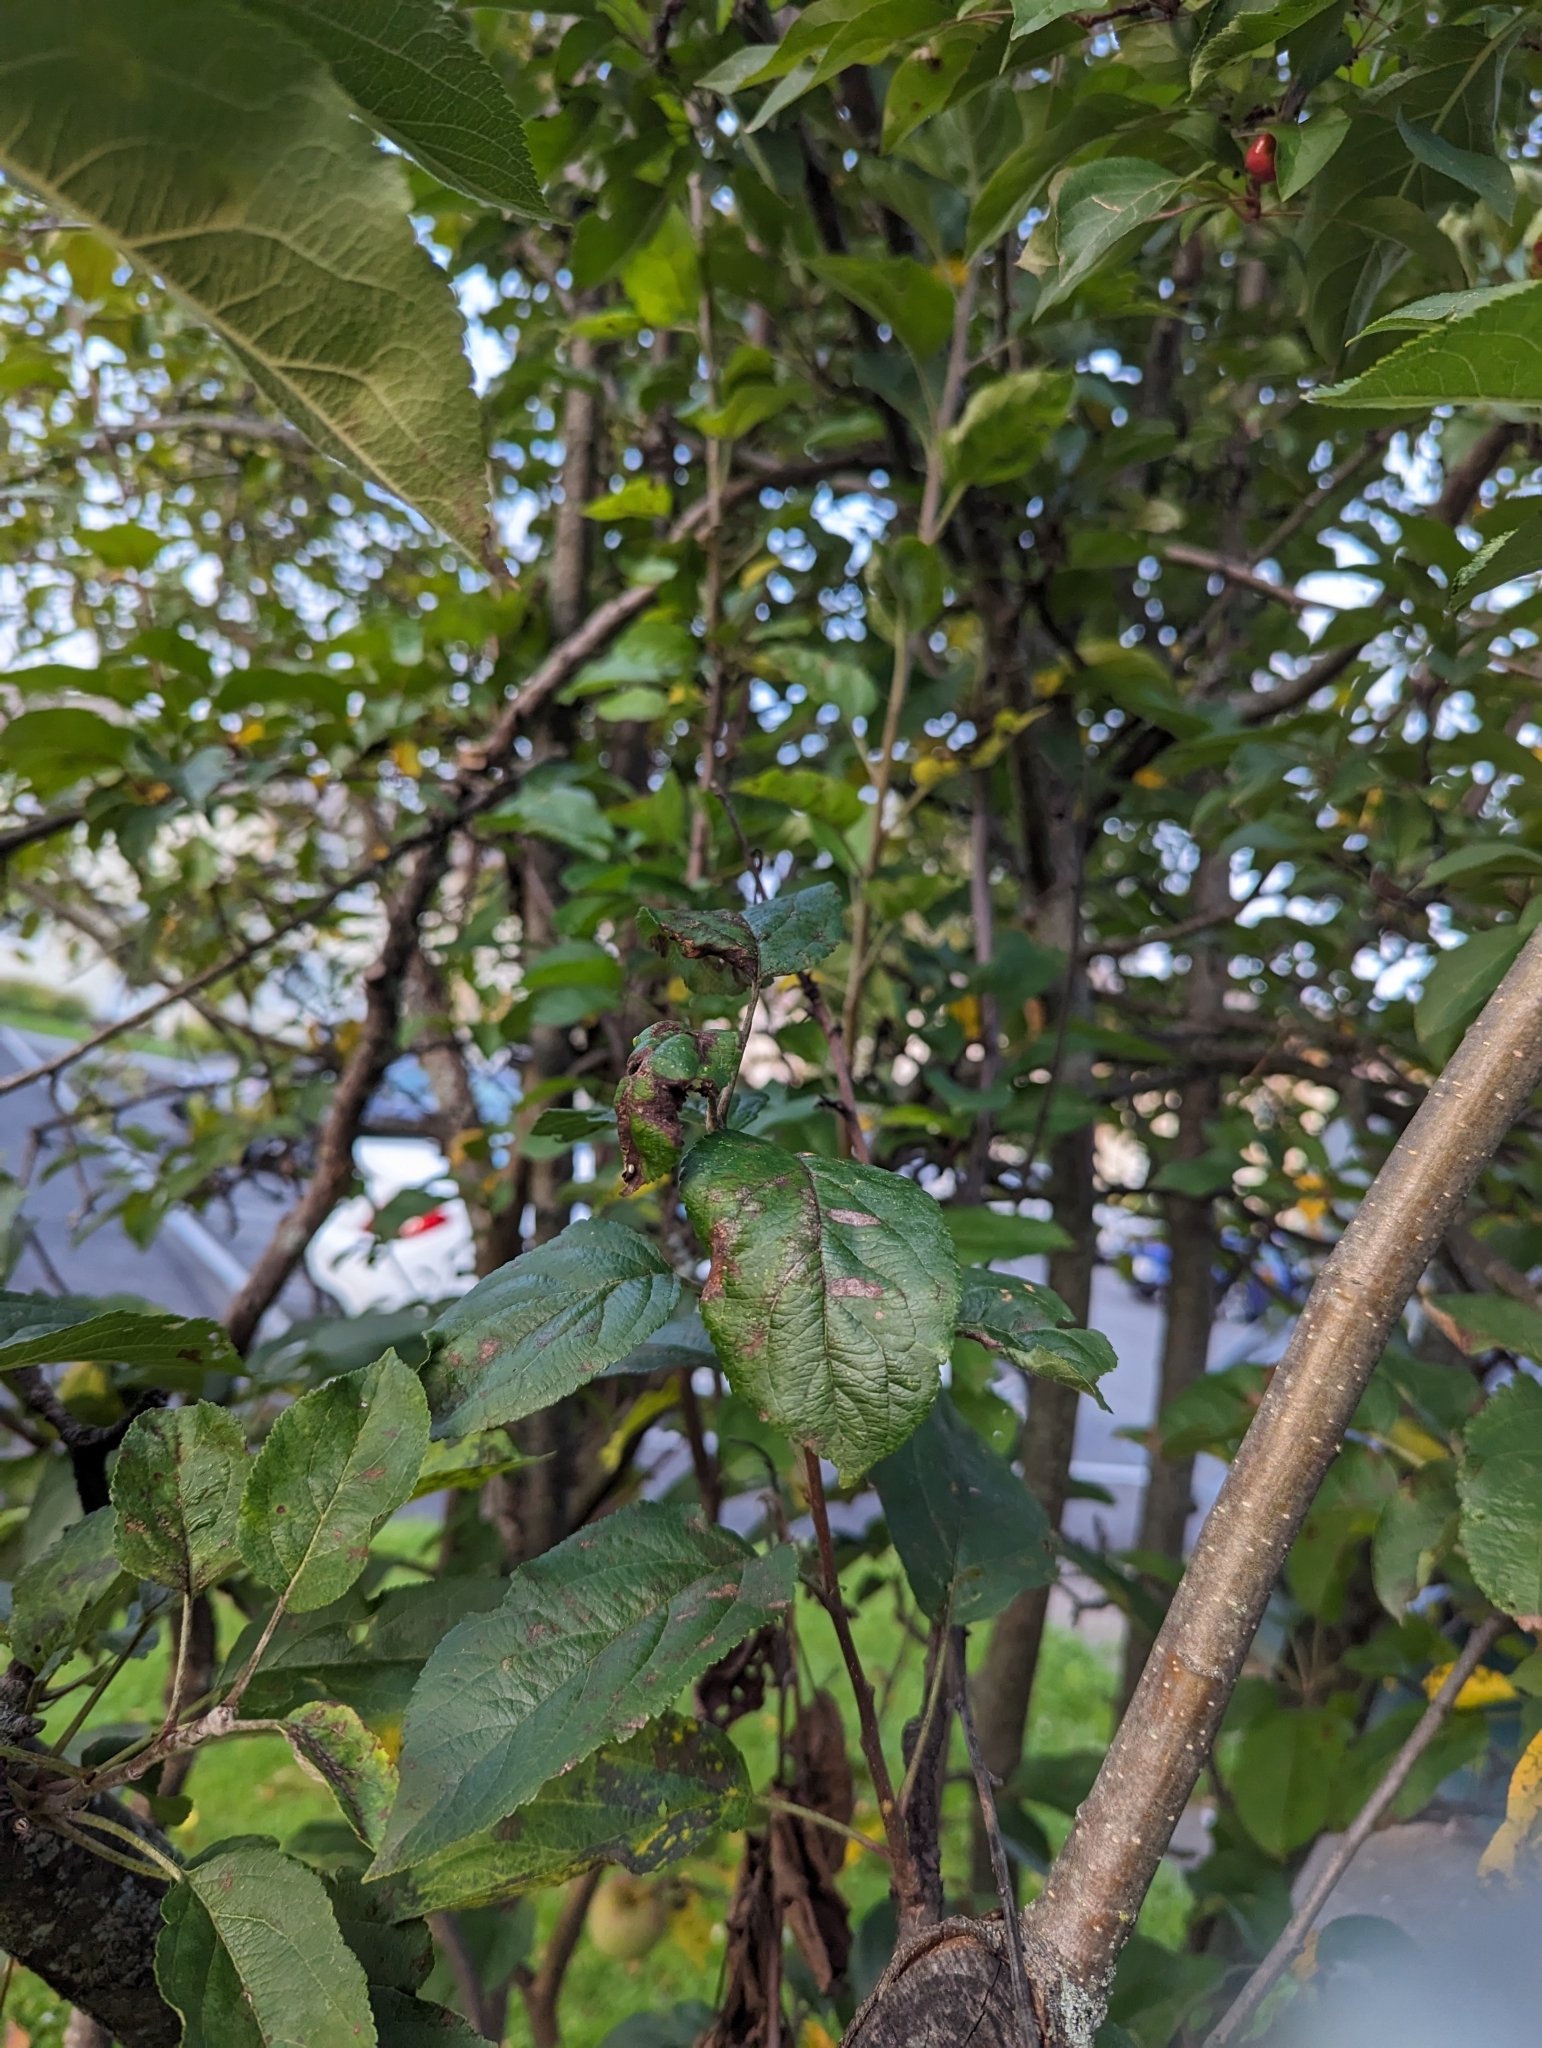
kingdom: Animalia
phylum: Arthropoda
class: Arachnida
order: Araneae
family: Araneidae
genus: Araniella
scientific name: Araniella displicata
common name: Sixspotted orb weaver
